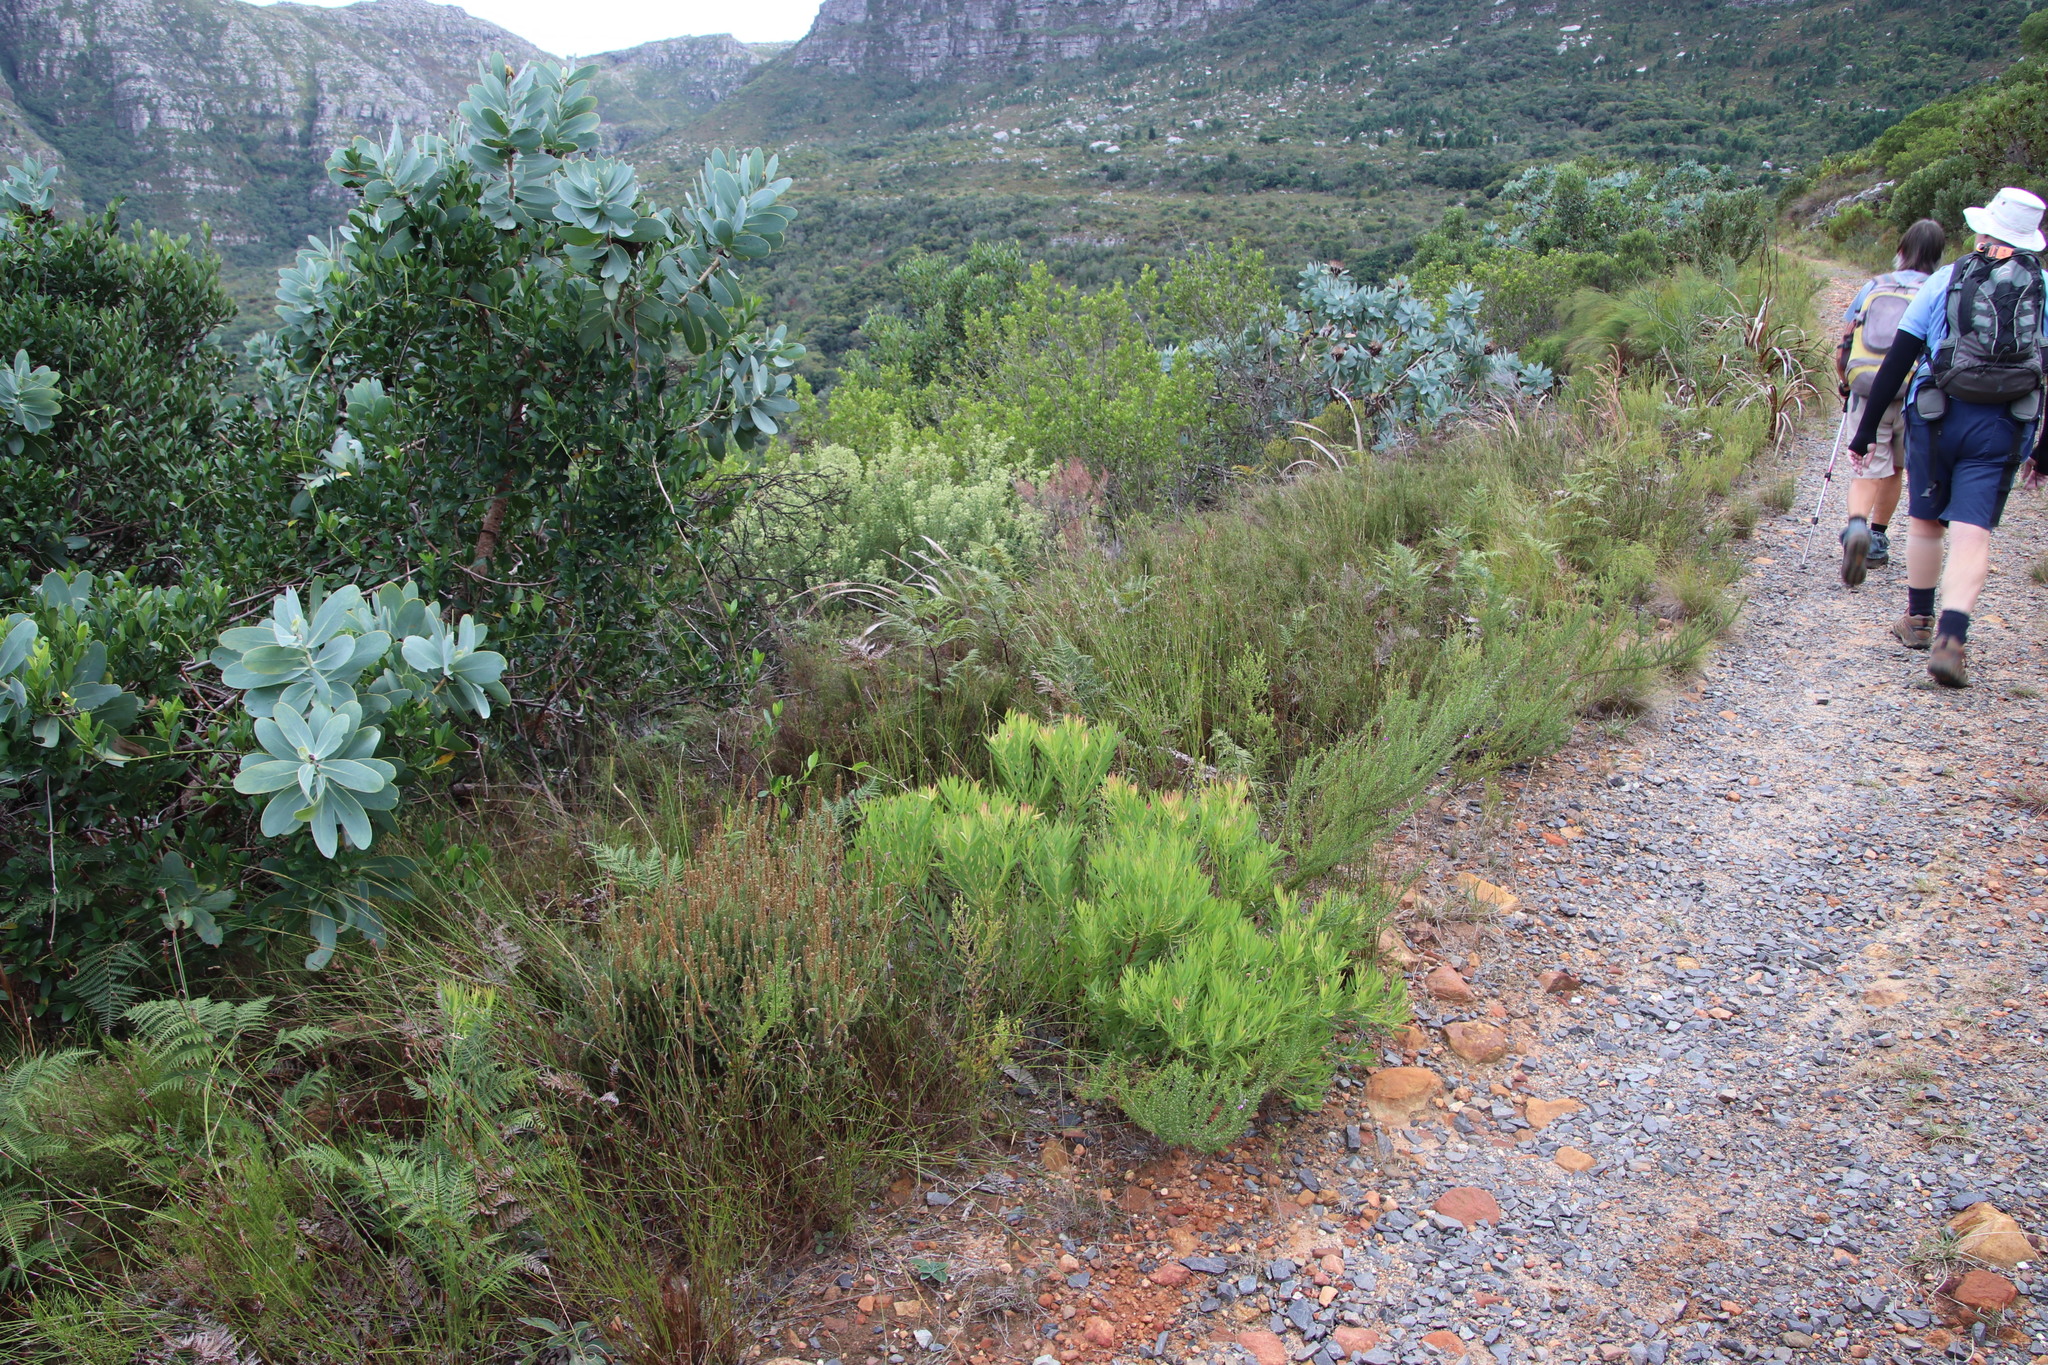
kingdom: Plantae
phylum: Tracheophyta
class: Magnoliopsida
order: Proteales
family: Proteaceae
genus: Leucadendron
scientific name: Leucadendron salignum
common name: Common sunshine conebush
